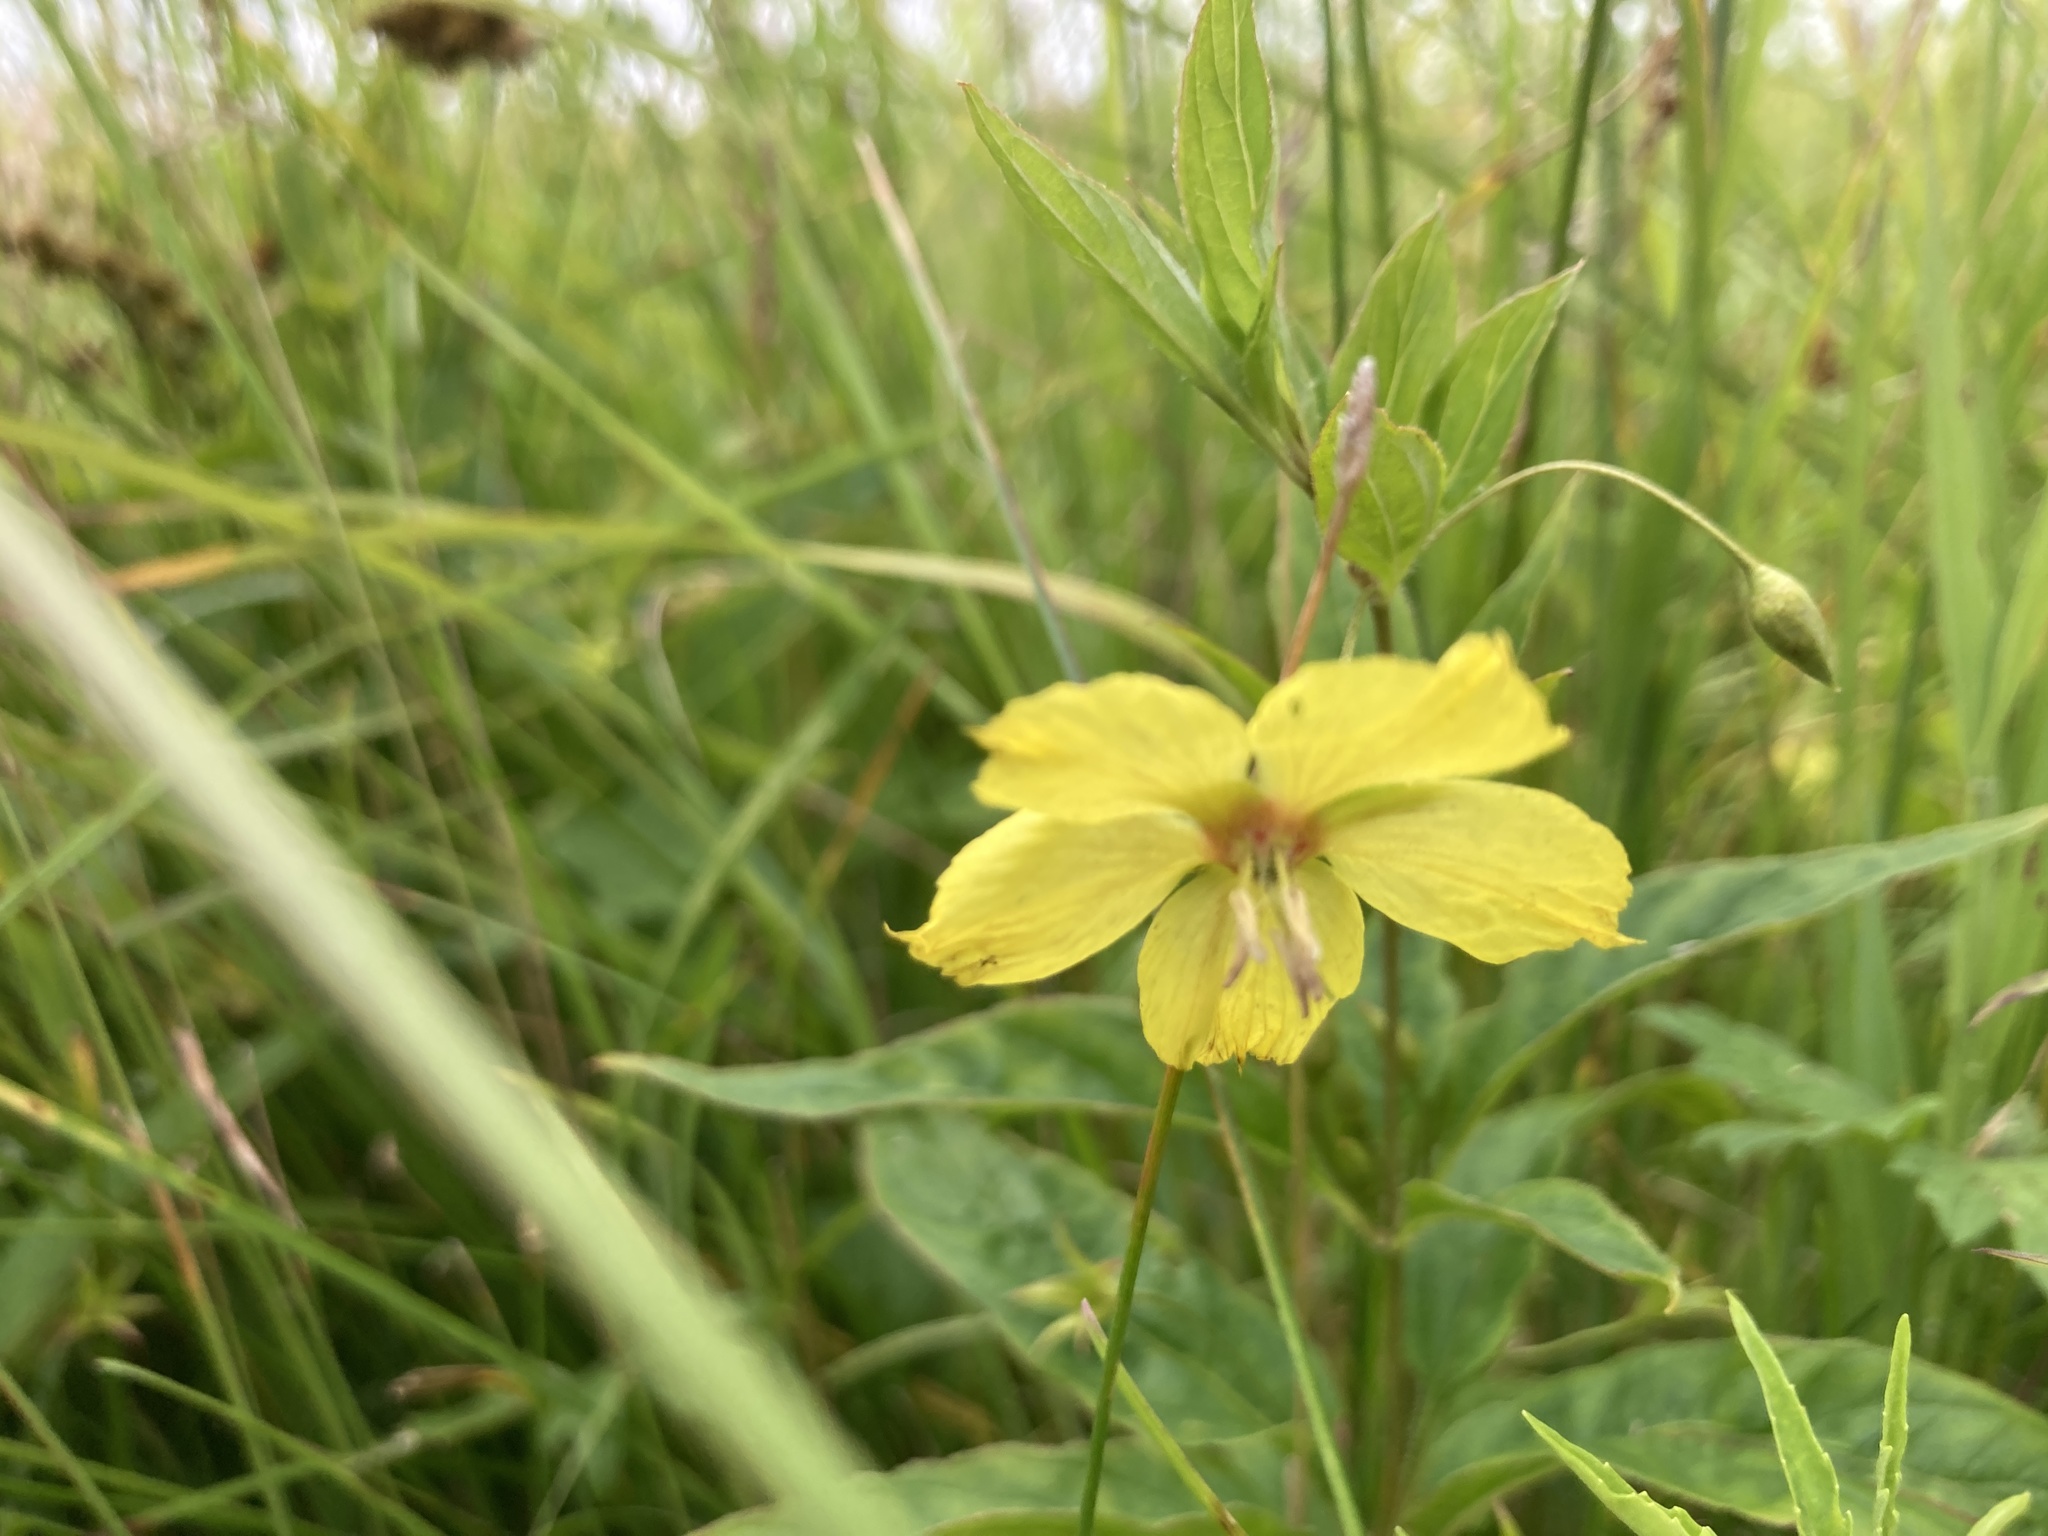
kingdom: Plantae
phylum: Tracheophyta
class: Magnoliopsida
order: Ericales
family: Primulaceae
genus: Lysimachia
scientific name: Lysimachia ciliata
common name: Fringed loosestrife
